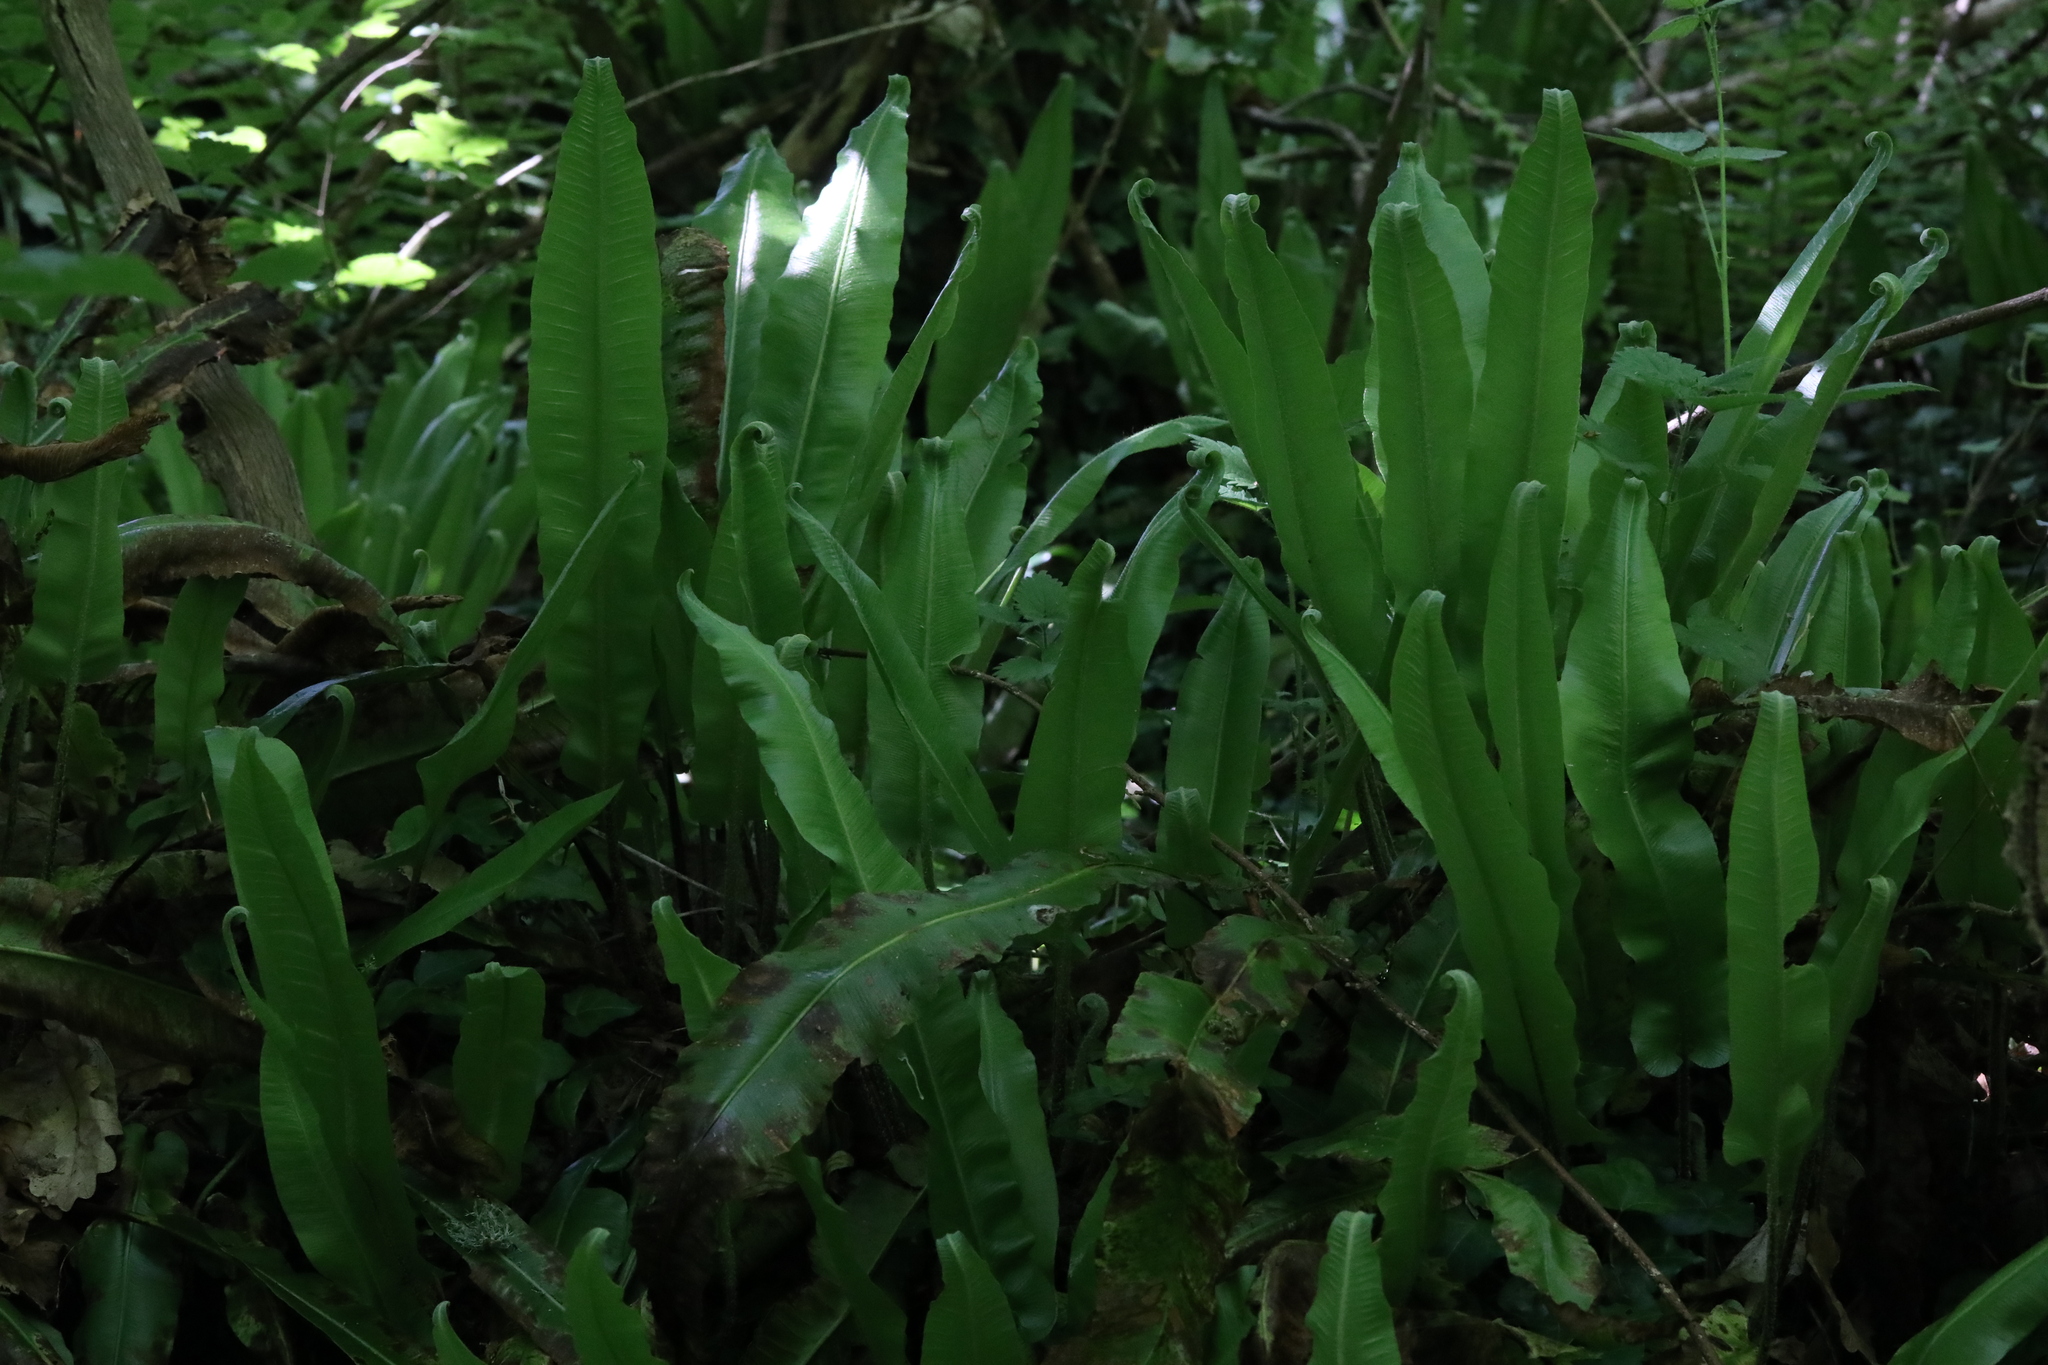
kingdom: Plantae
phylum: Tracheophyta
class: Polypodiopsida
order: Polypodiales
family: Aspleniaceae
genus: Asplenium
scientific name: Asplenium scolopendrium
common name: Hart's-tongue fern
